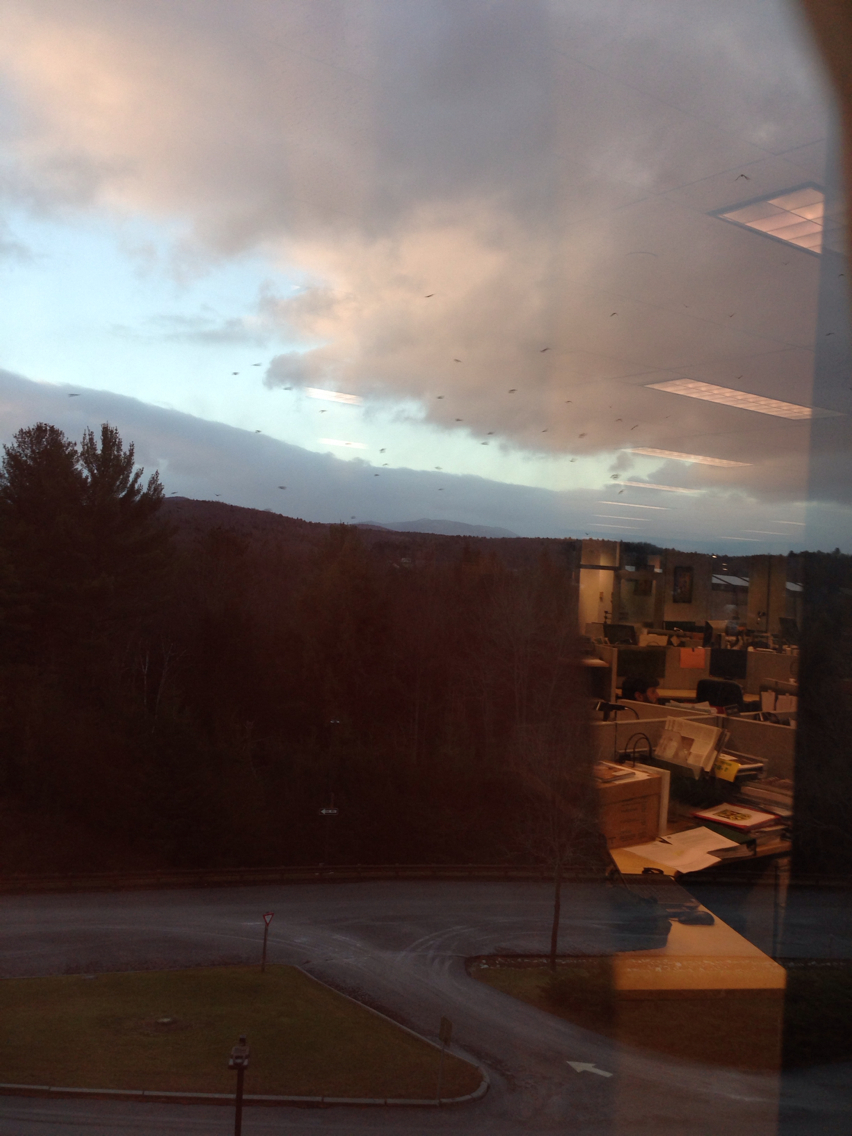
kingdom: Animalia
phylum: Chordata
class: Aves
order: Passeriformes
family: Corvidae
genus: Corvus
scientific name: Corvus brachyrhynchos
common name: American crow
